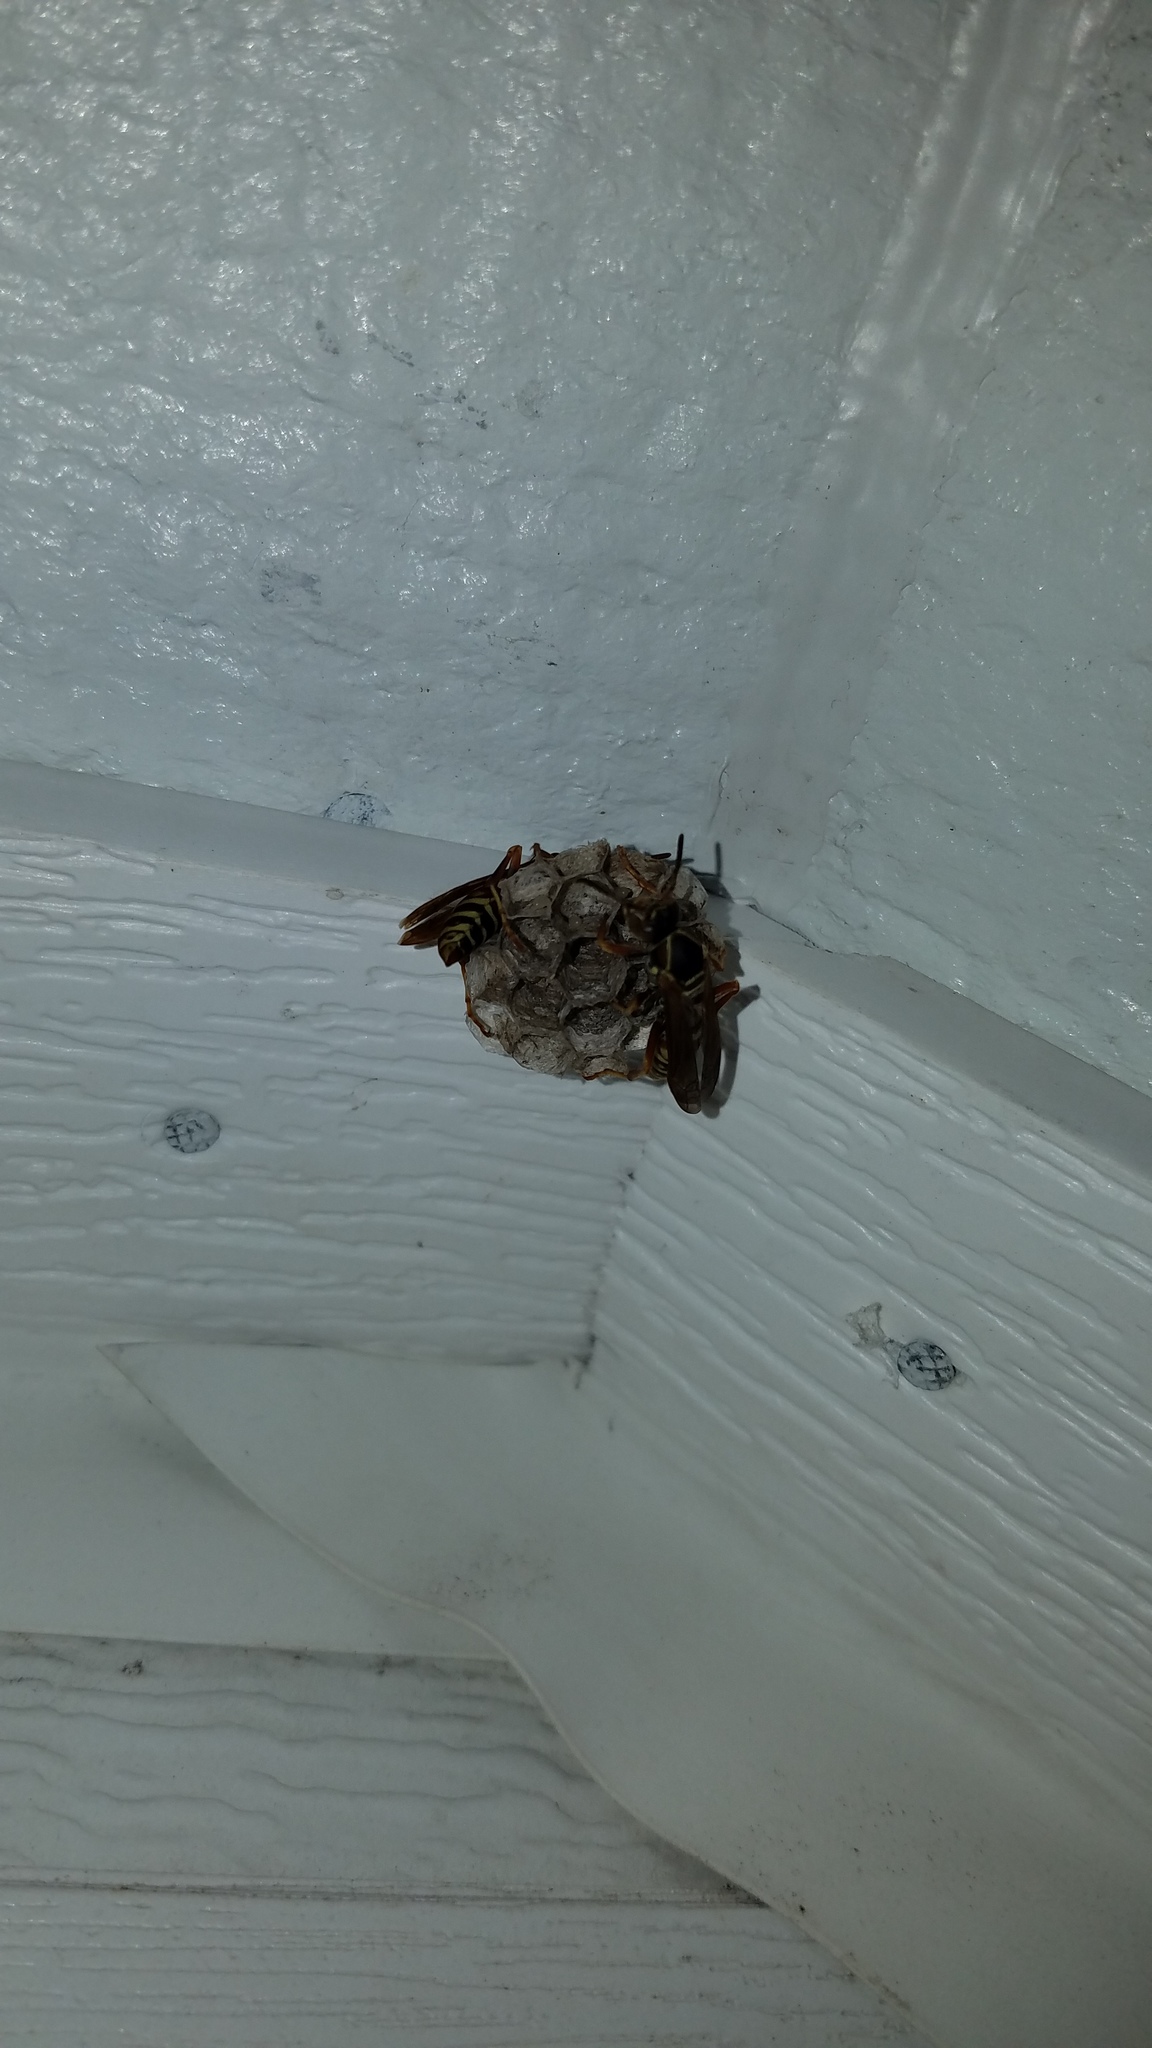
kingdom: Animalia
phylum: Arthropoda
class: Insecta
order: Hymenoptera
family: Eumenidae
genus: Polistes
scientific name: Polistes fuscatus
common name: Dark paper wasp
